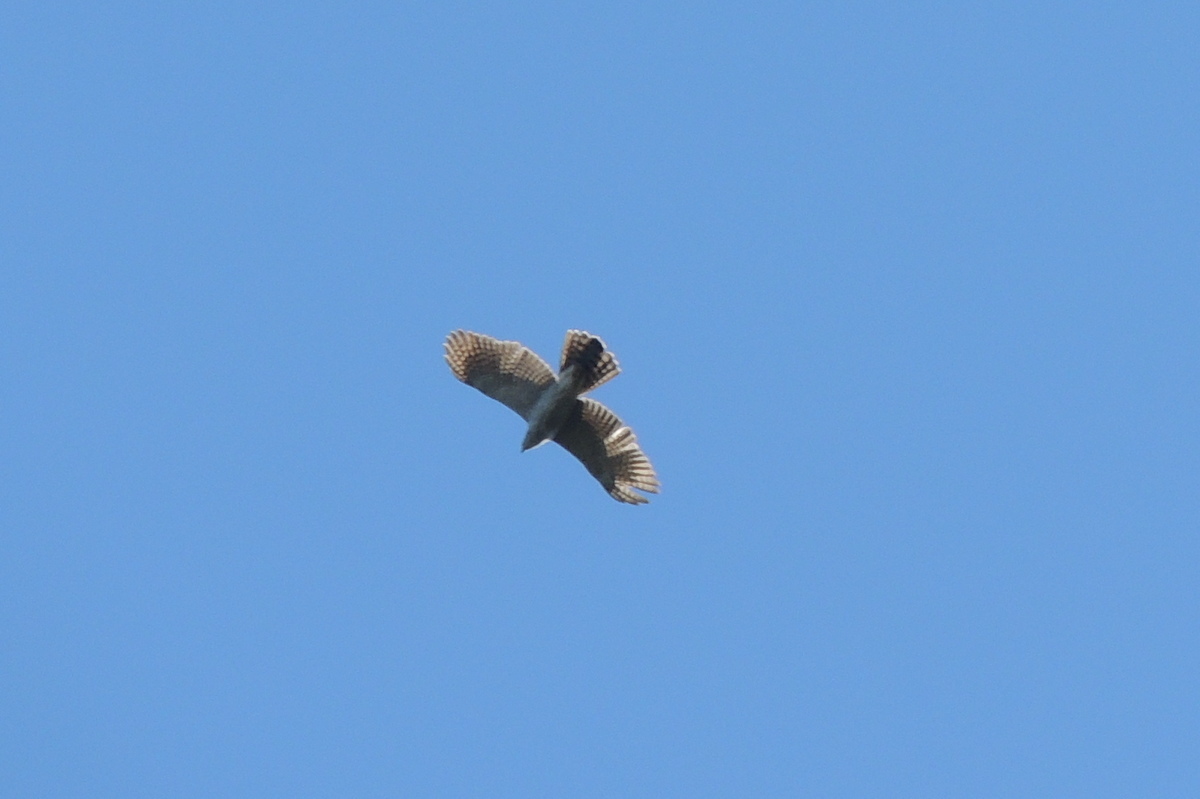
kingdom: Animalia
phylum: Chordata
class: Aves
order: Accipitriformes
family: Accipitridae
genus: Accipiter
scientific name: Accipiter henstii
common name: Henst's goshawk
